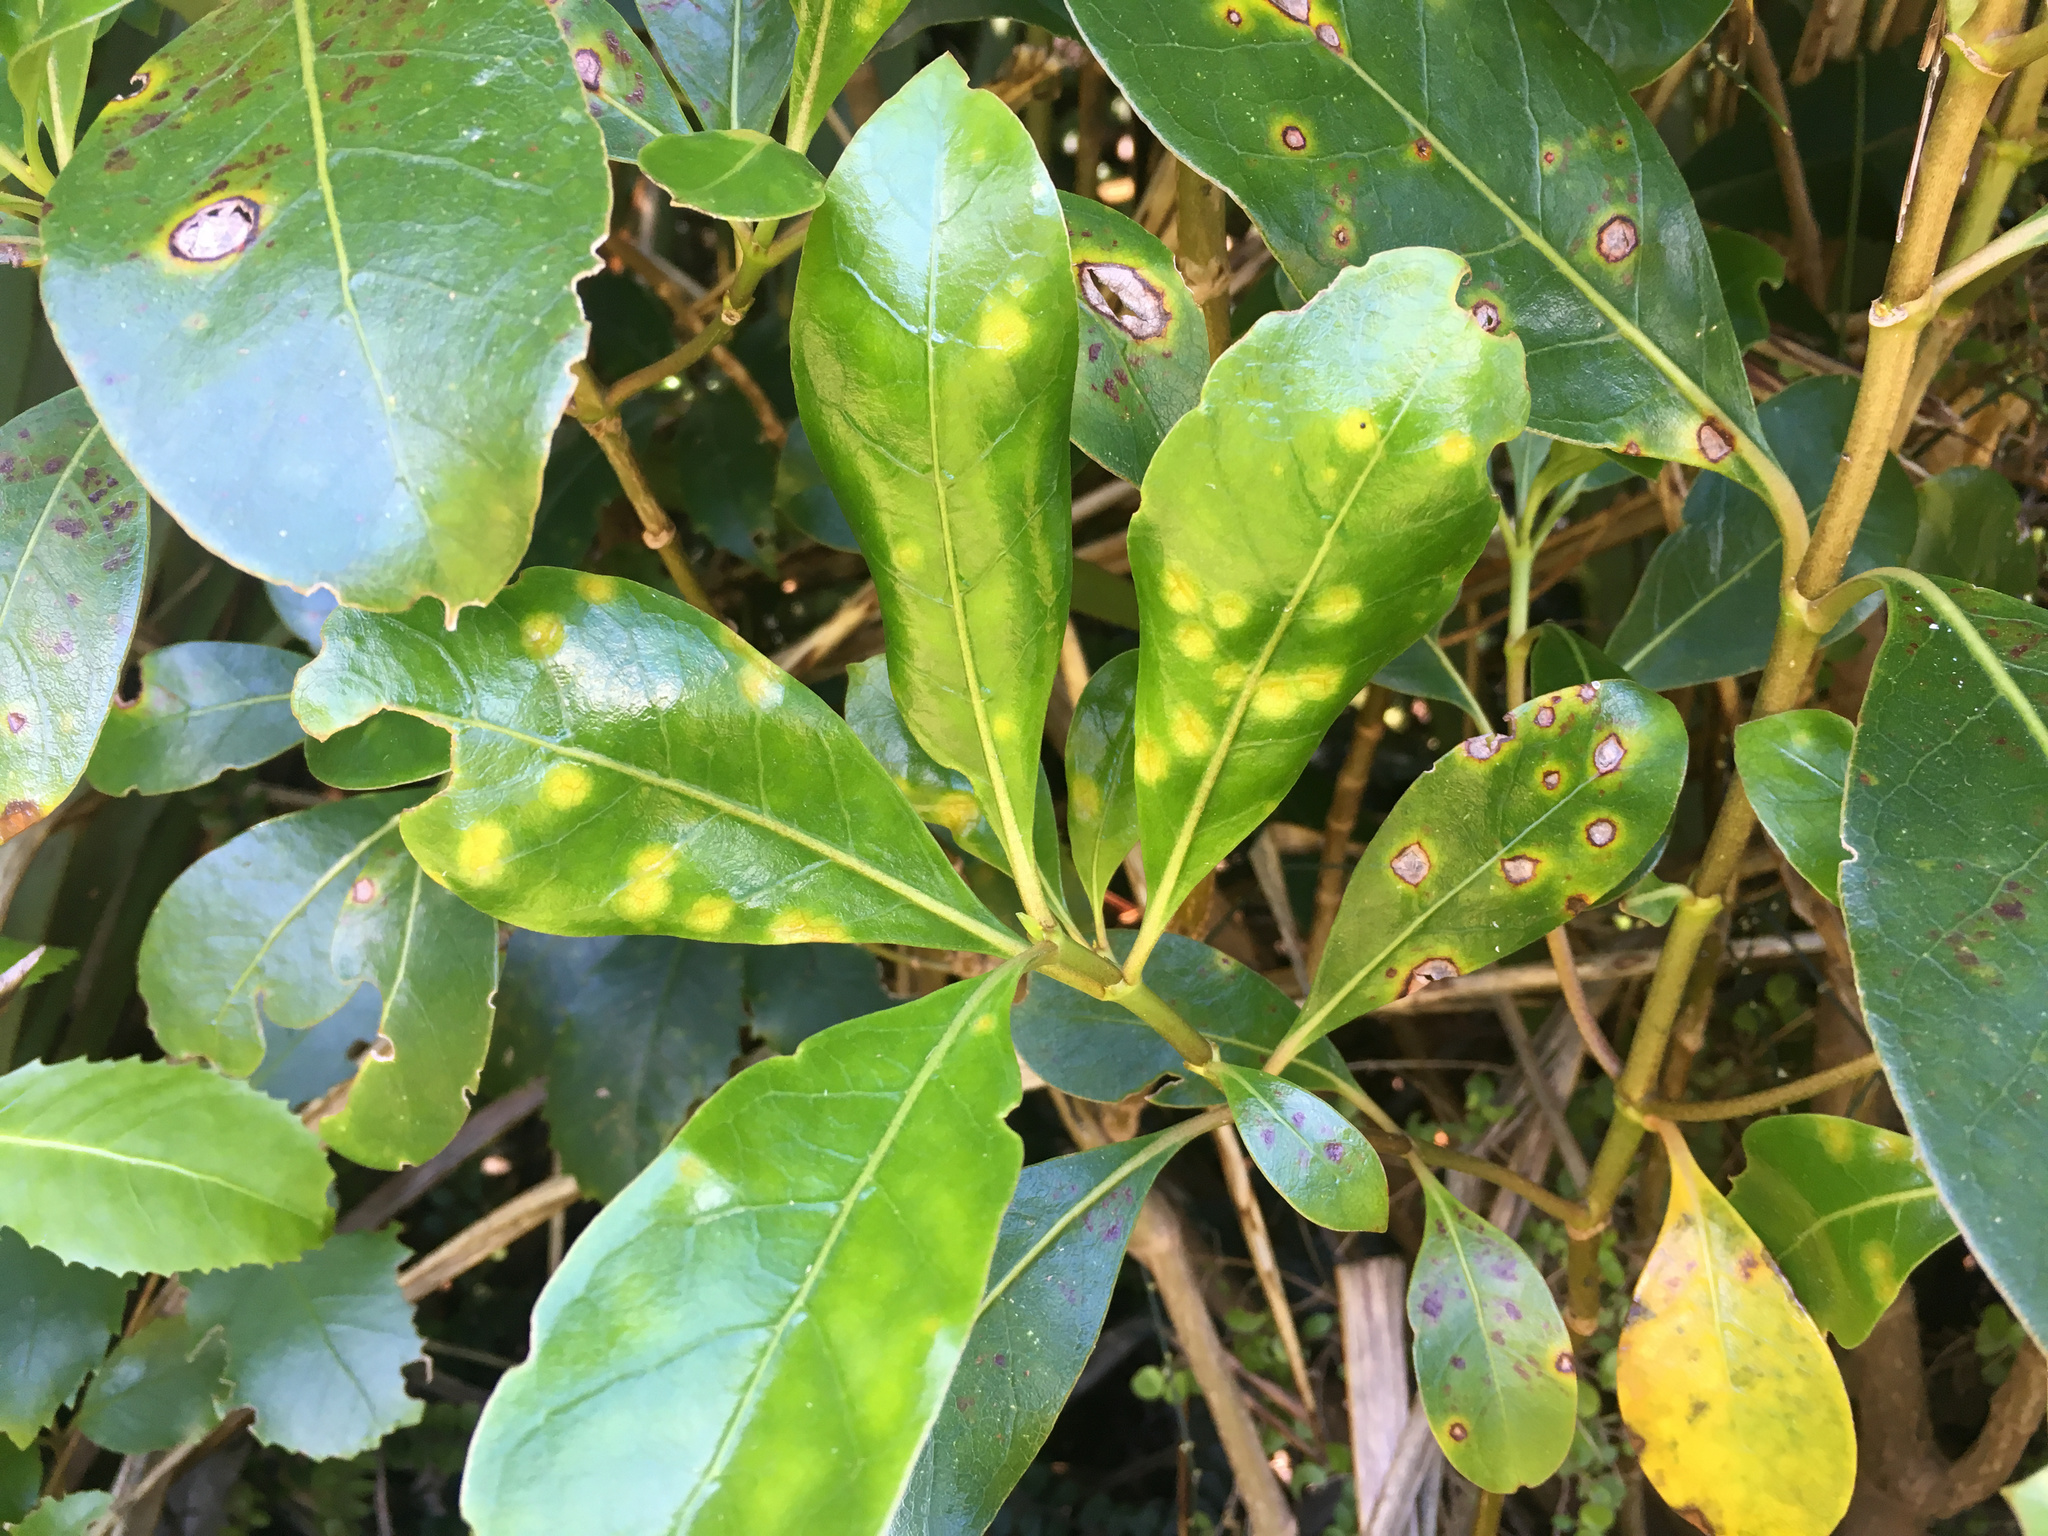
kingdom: Fungi
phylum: Basidiomycota
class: Pucciniomycetes
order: Pucciniales
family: Pucciniaceae
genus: Puccinia
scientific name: Puccinia coprosmae
